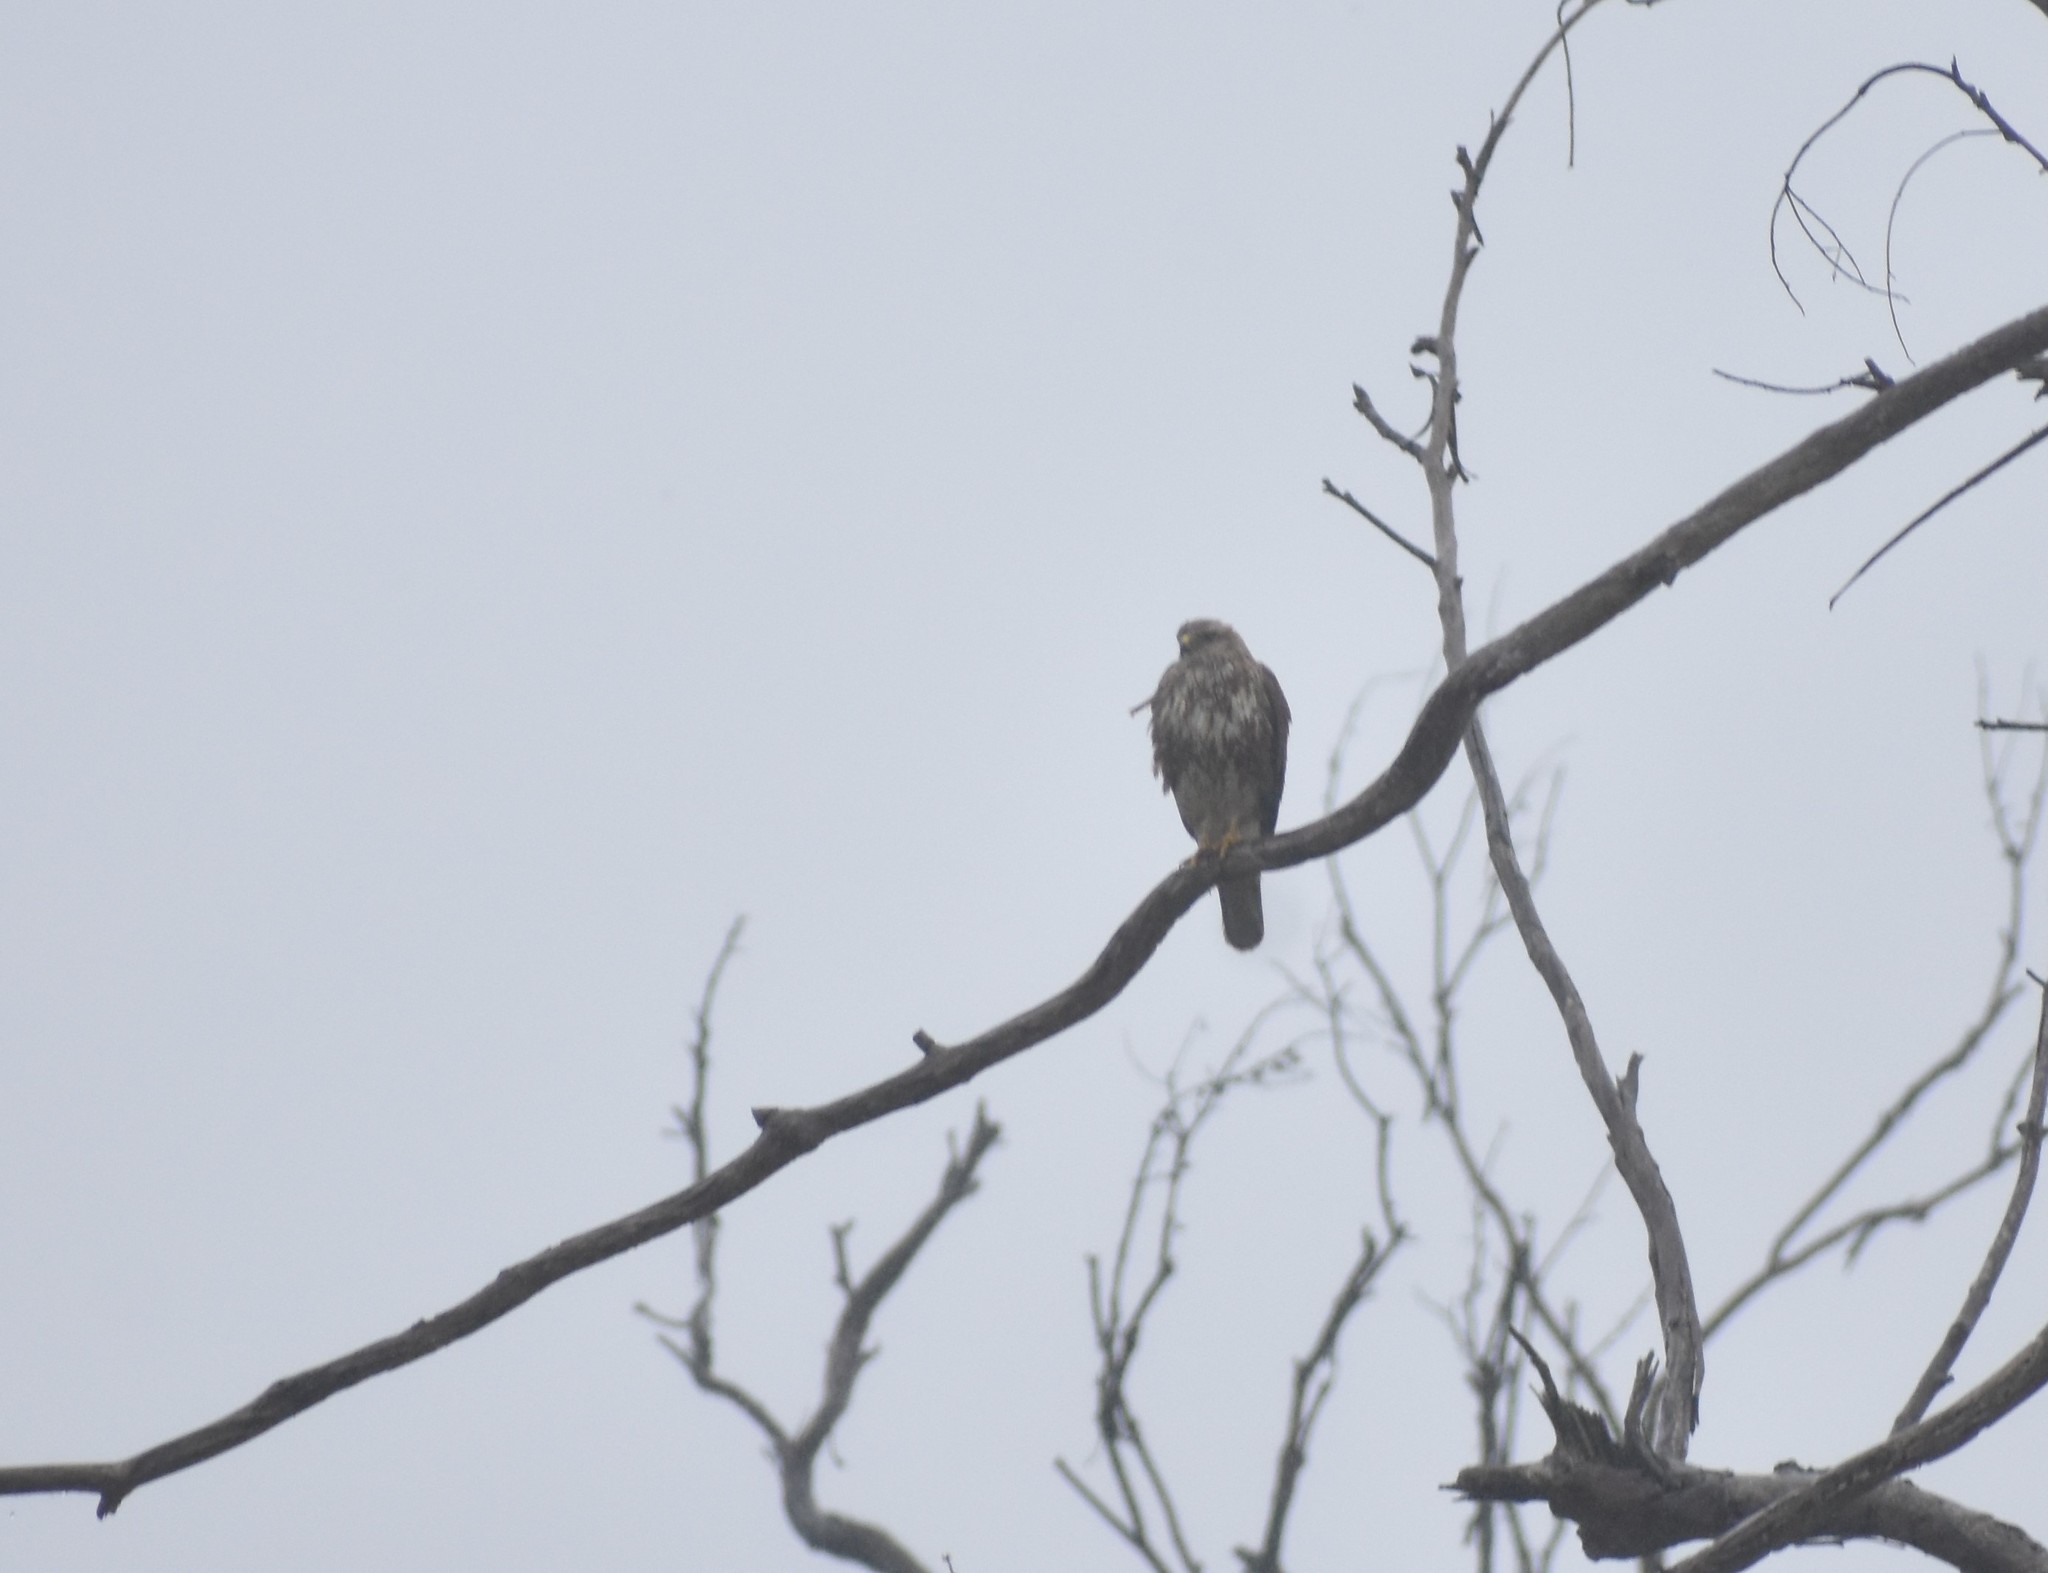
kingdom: Animalia
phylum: Chordata
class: Aves
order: Accipitriformes
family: Accipitridae
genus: Buteo
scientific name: Buteo trizonatus
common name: Forest buzzard
